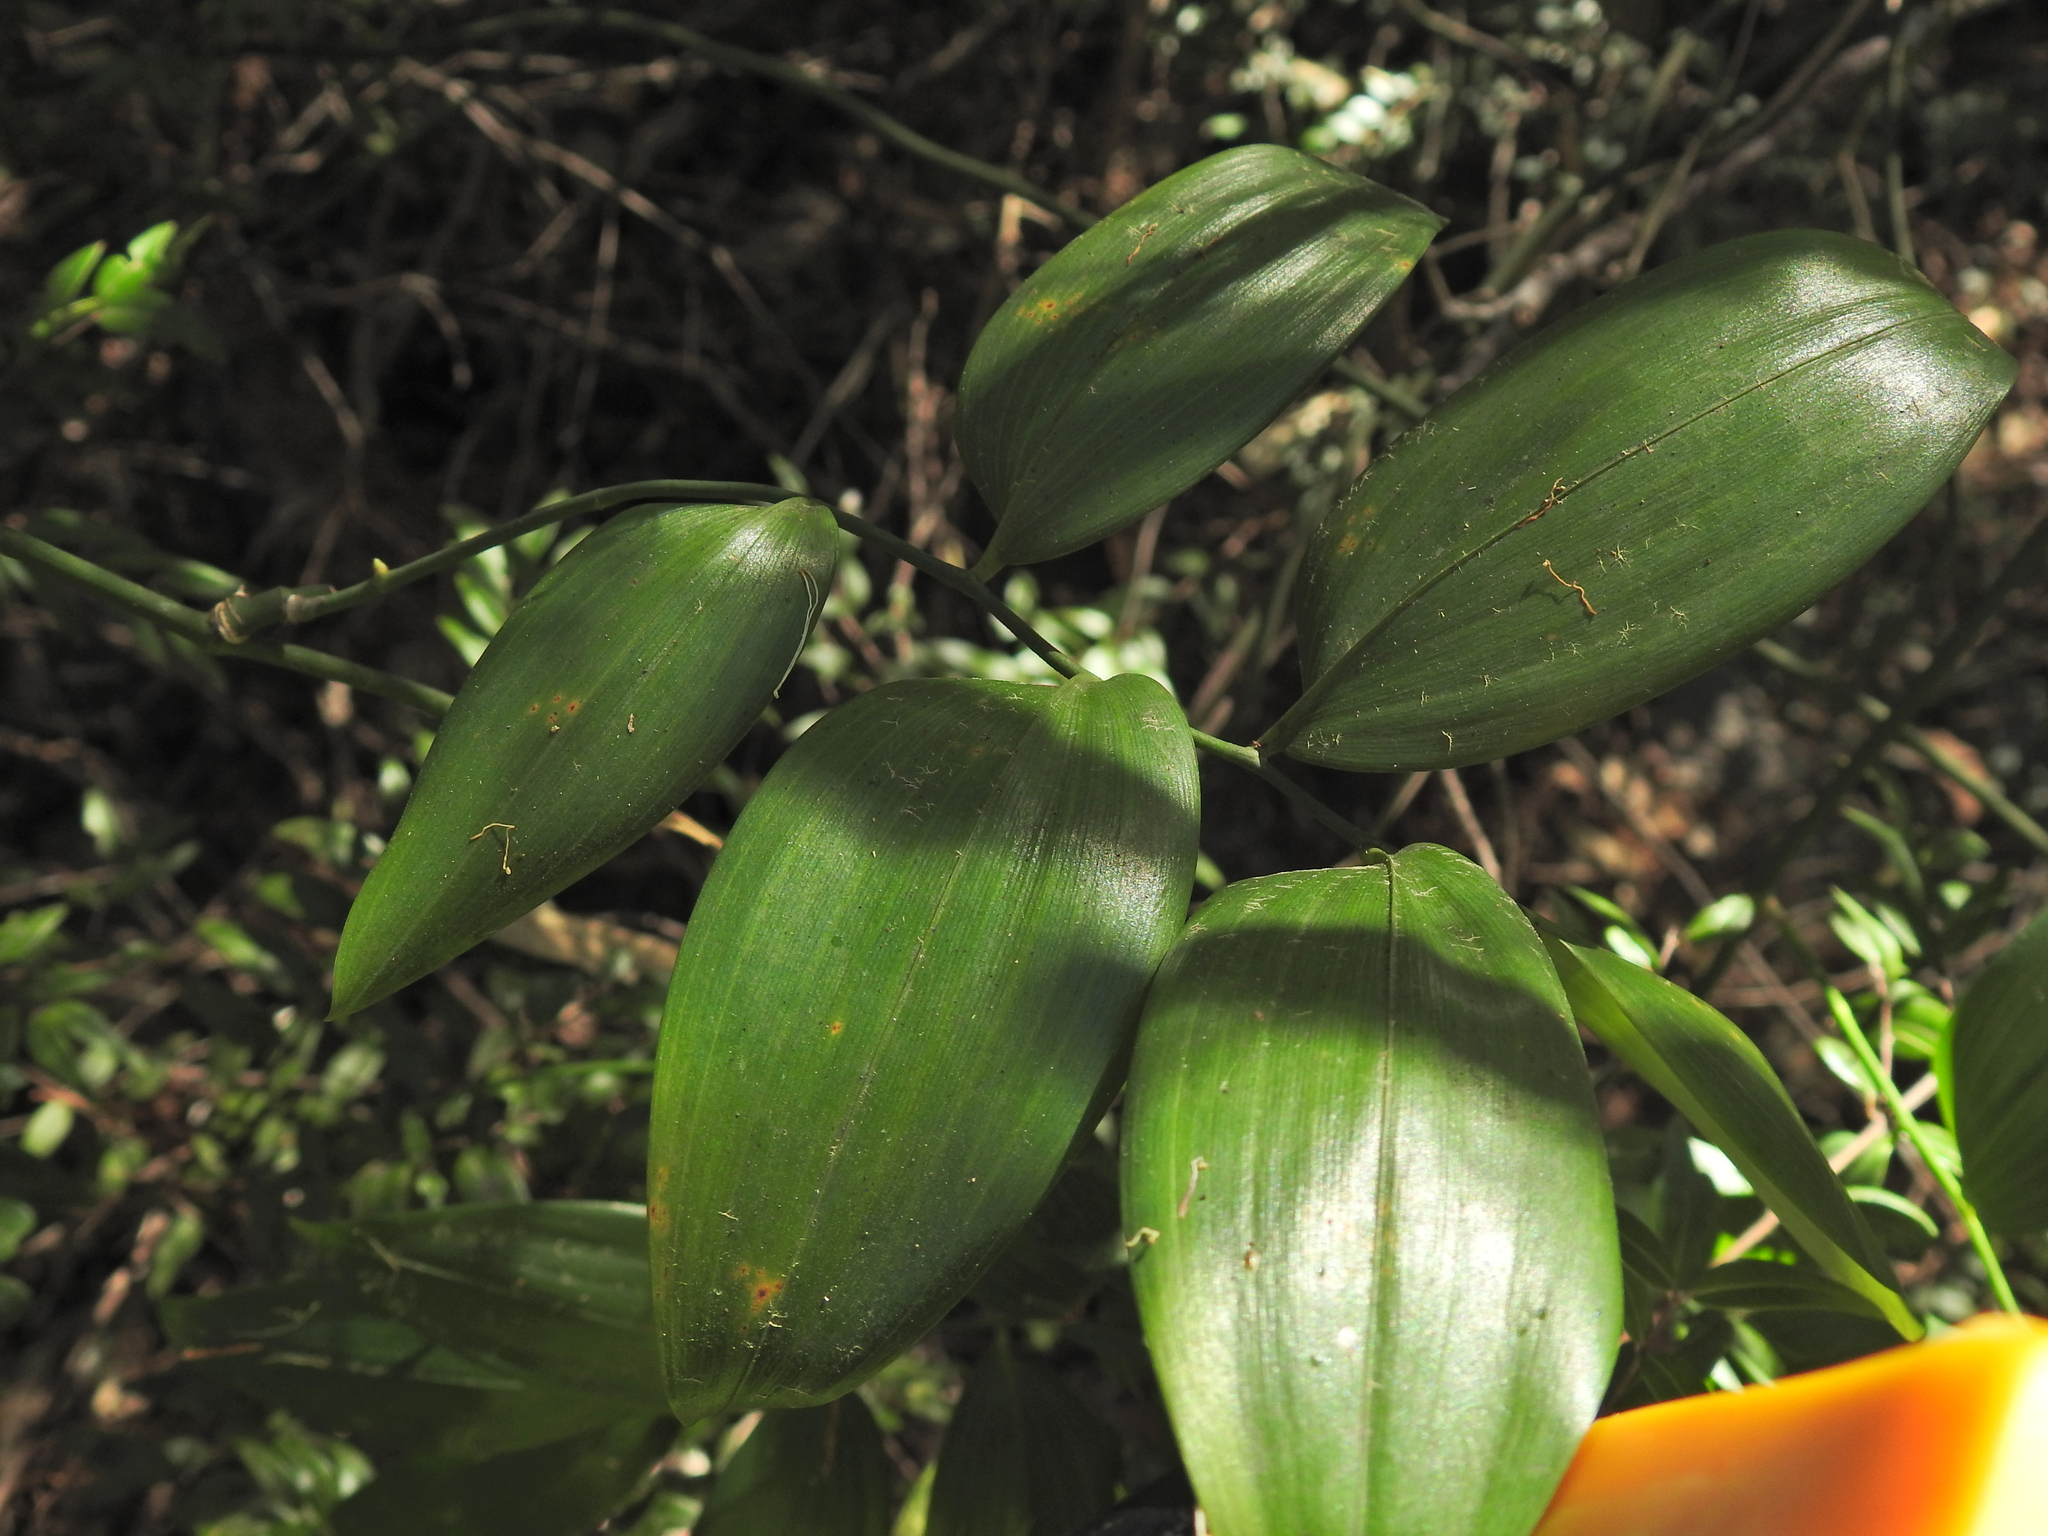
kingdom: Plantae
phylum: Tracheophyta
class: Liliopsida
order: Asparagales
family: Asphodelaceae
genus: Geitonoplesium
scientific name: Geitonoplesium cymosum
